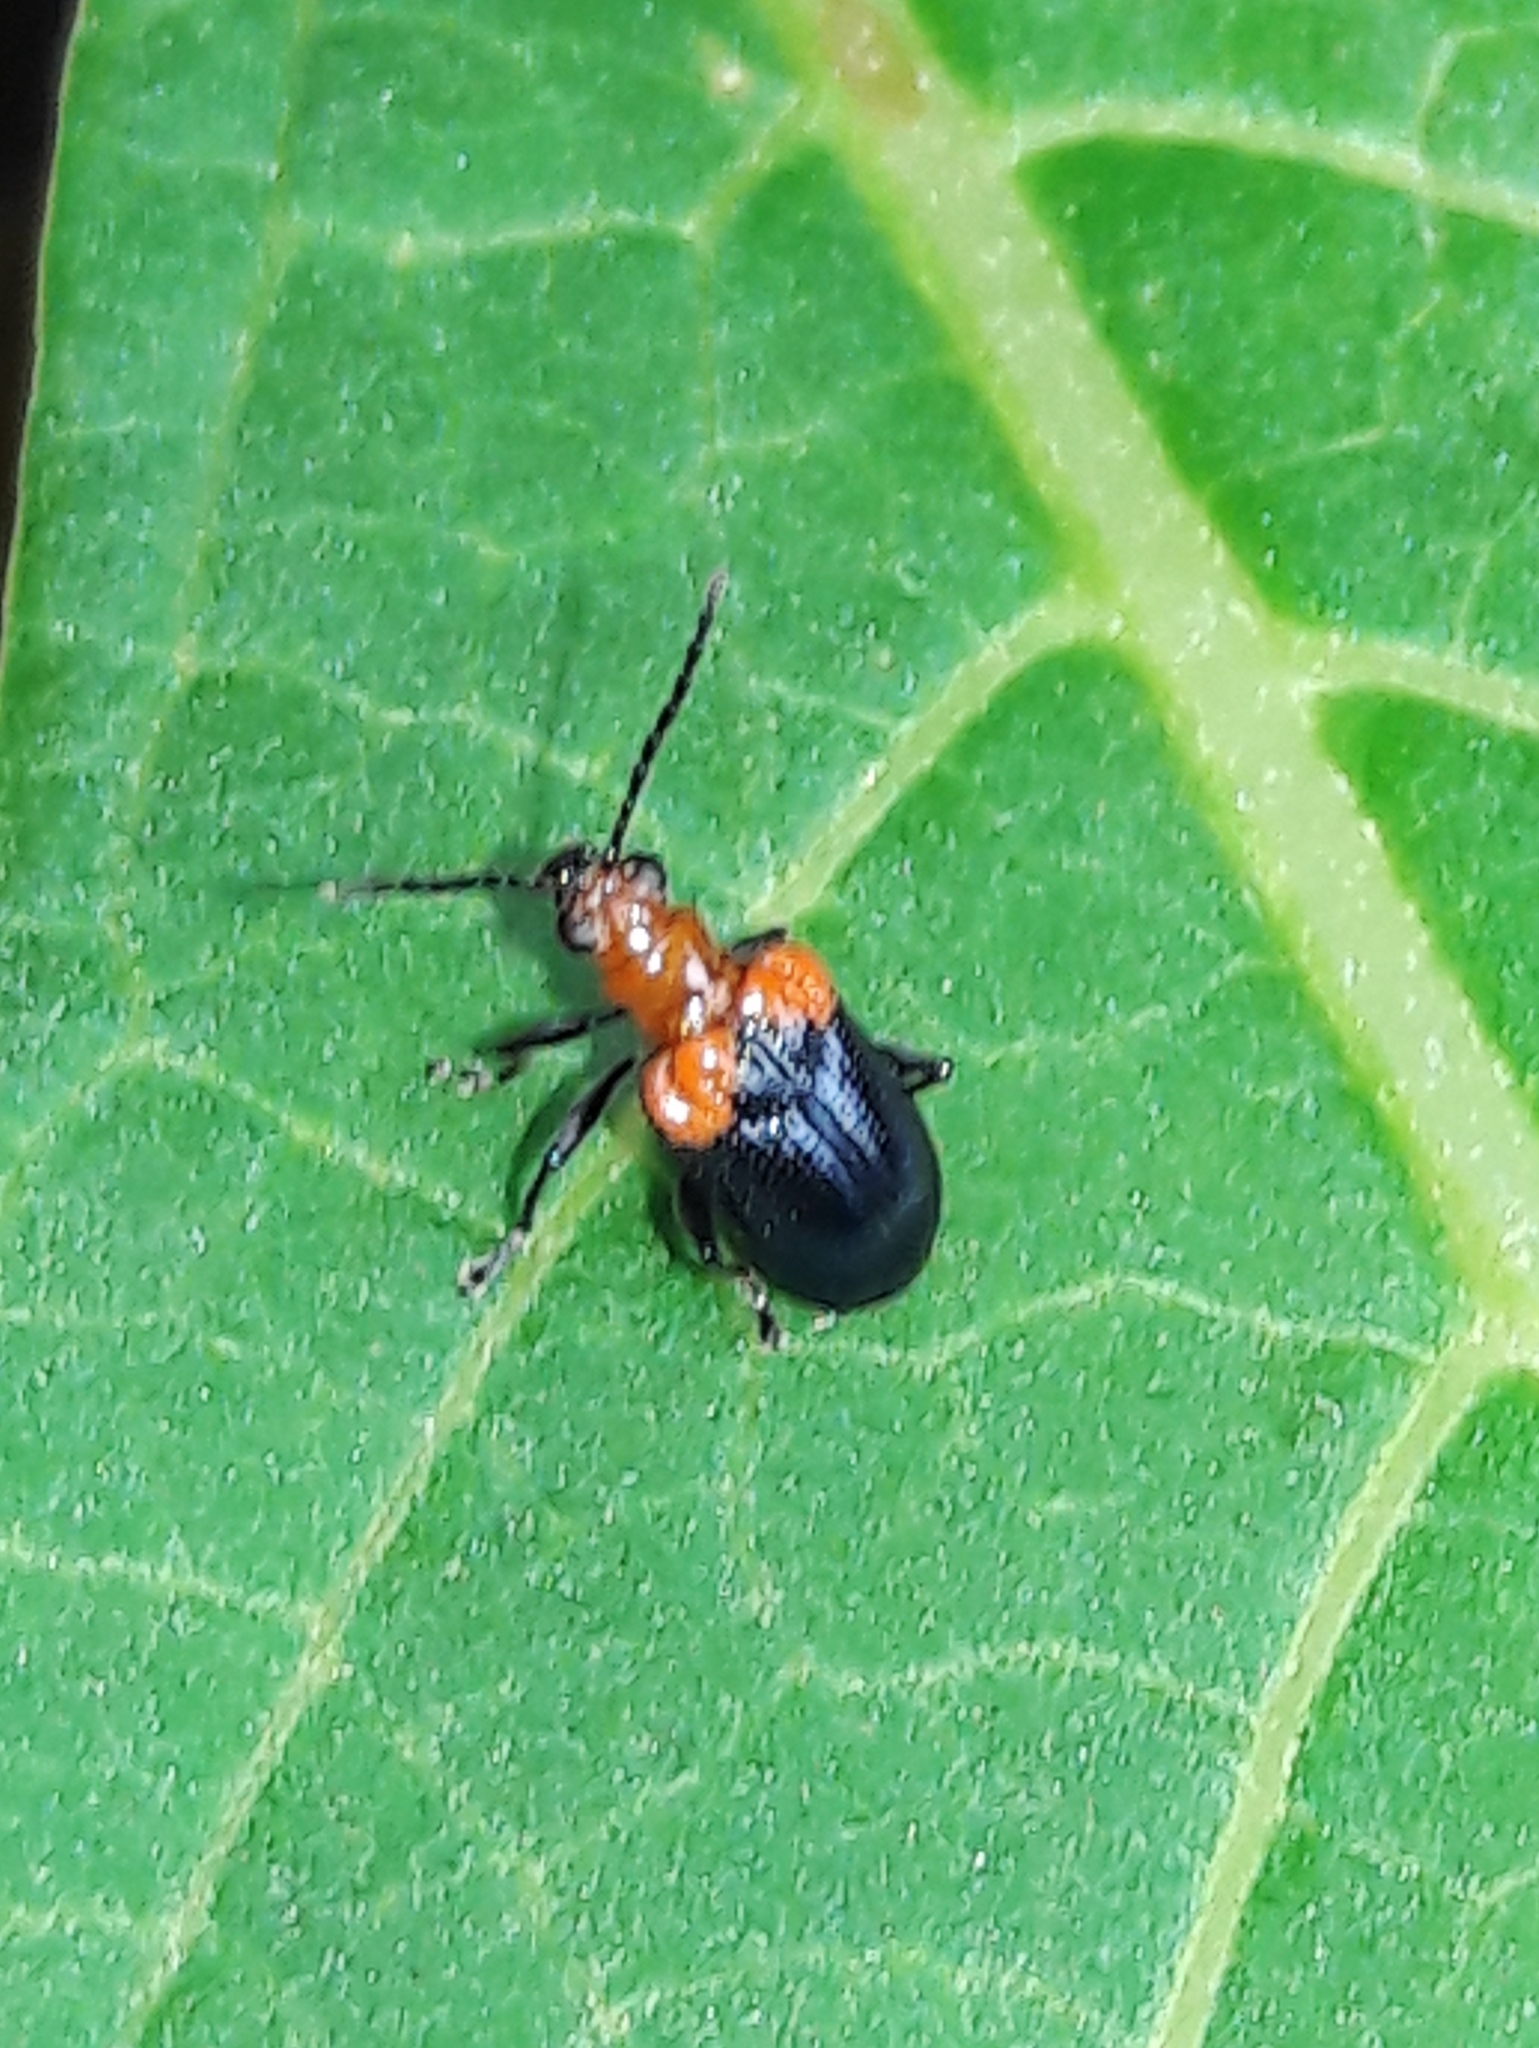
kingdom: Animalia
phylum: Arthropoda
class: Insecta
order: Coleoptera
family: Chrysomelidae
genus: Neolema
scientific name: Neolema
